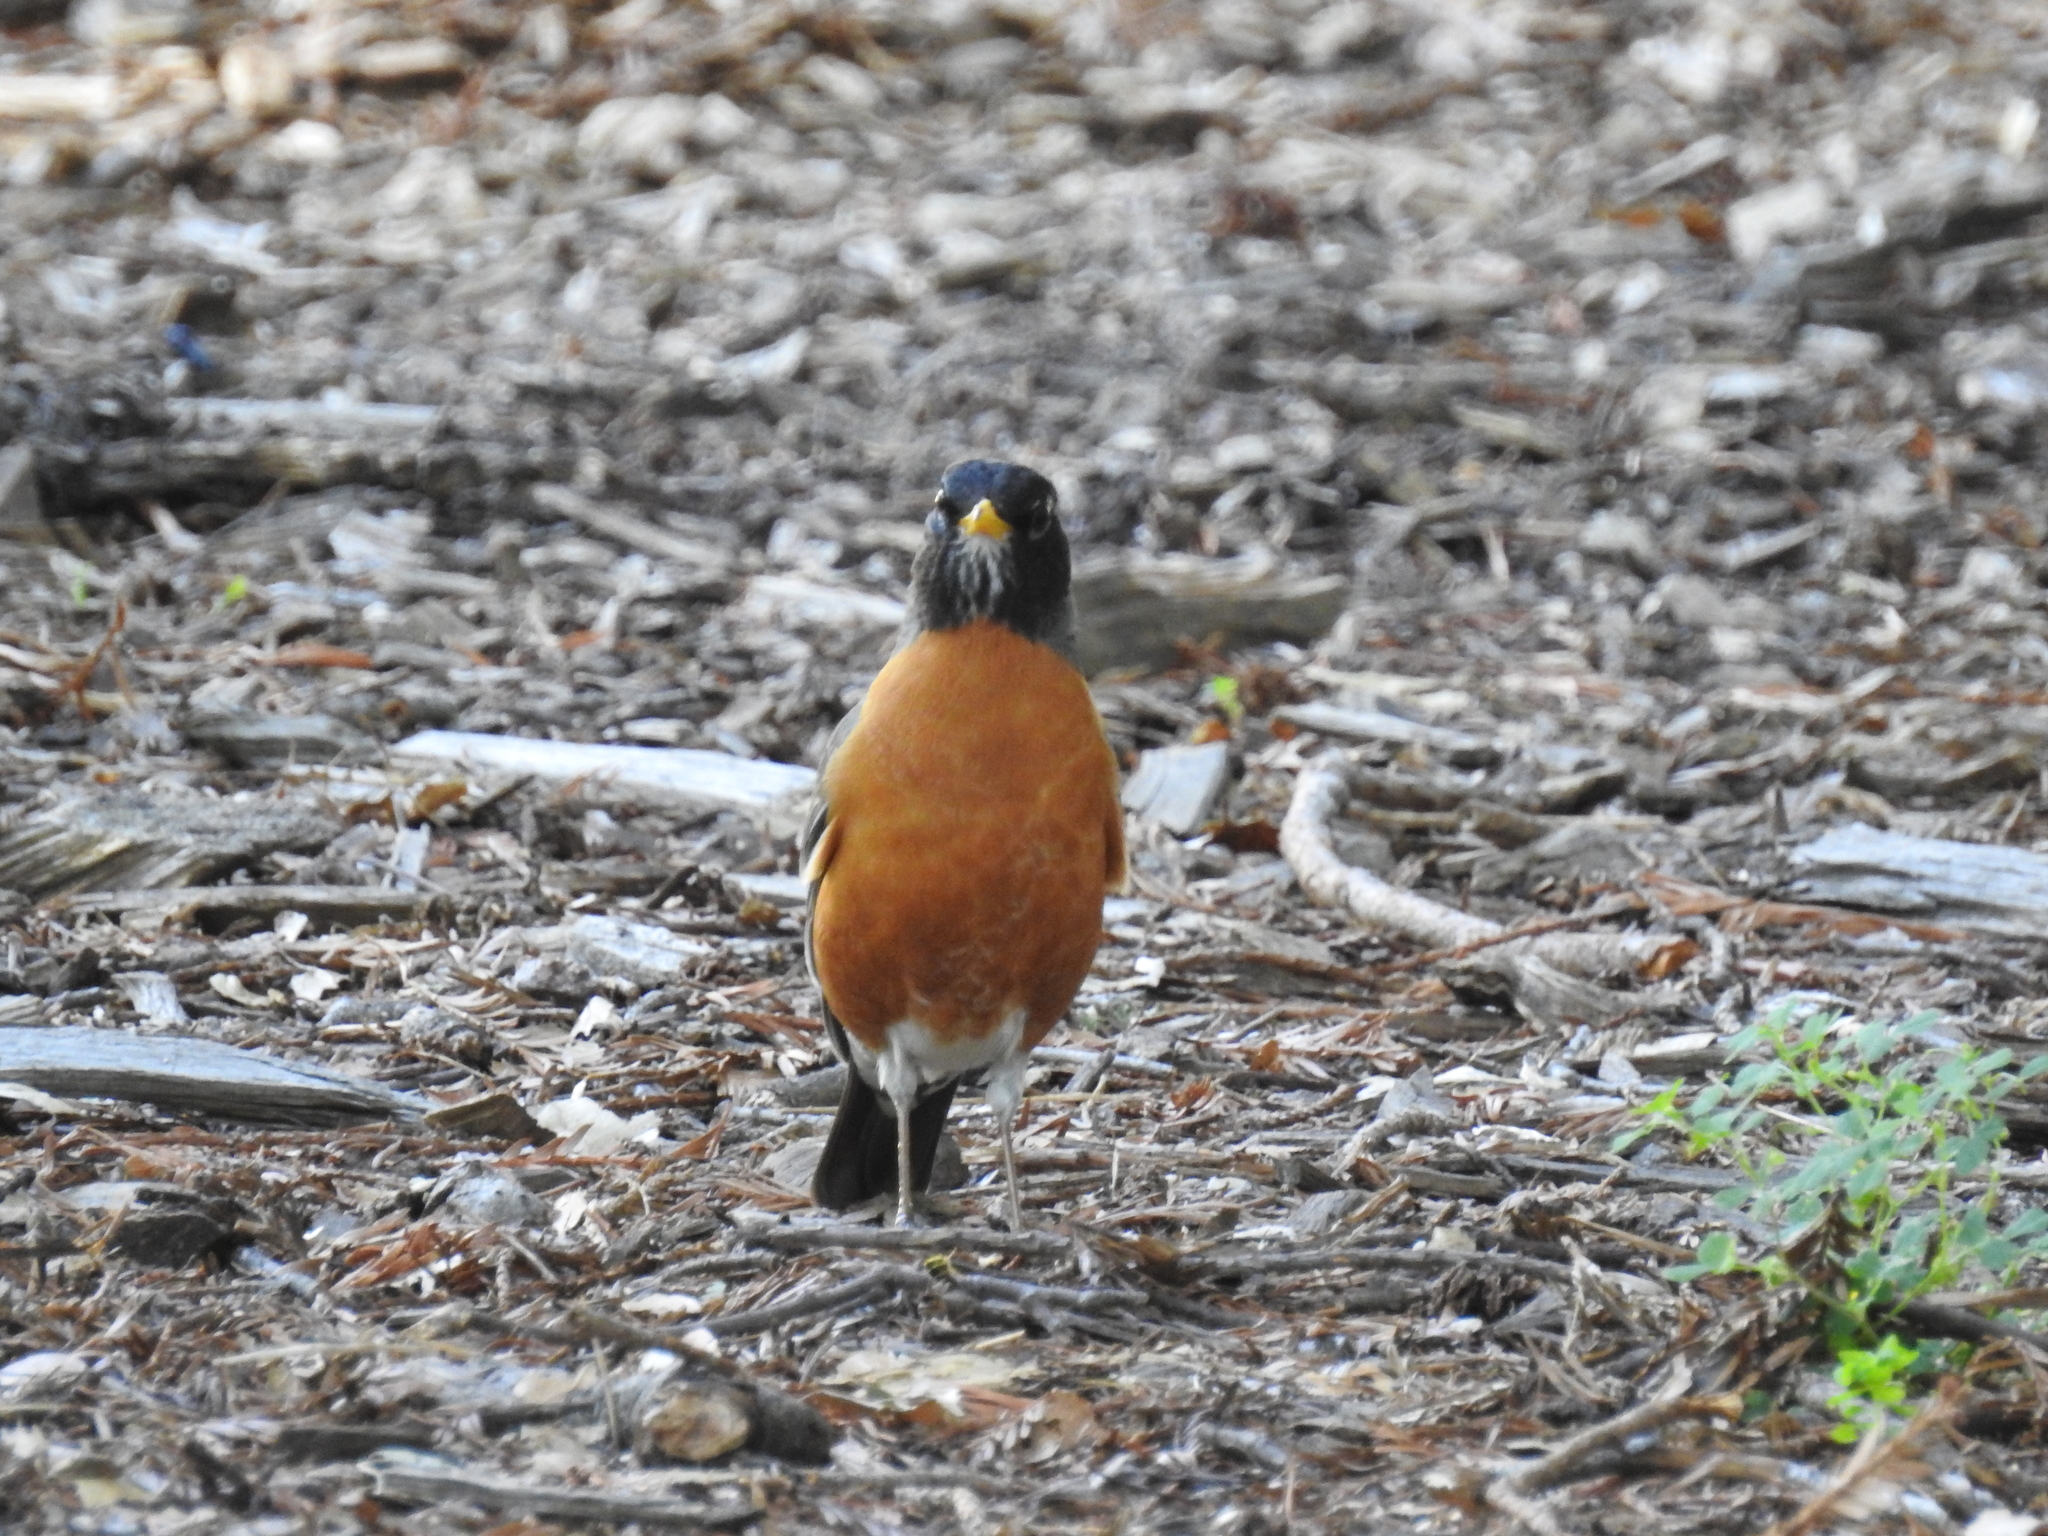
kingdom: Animalia
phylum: Chordata
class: Aves
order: Passeriformes
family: Turdidae
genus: Turdus
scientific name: Turdus migratorius
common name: American robin
